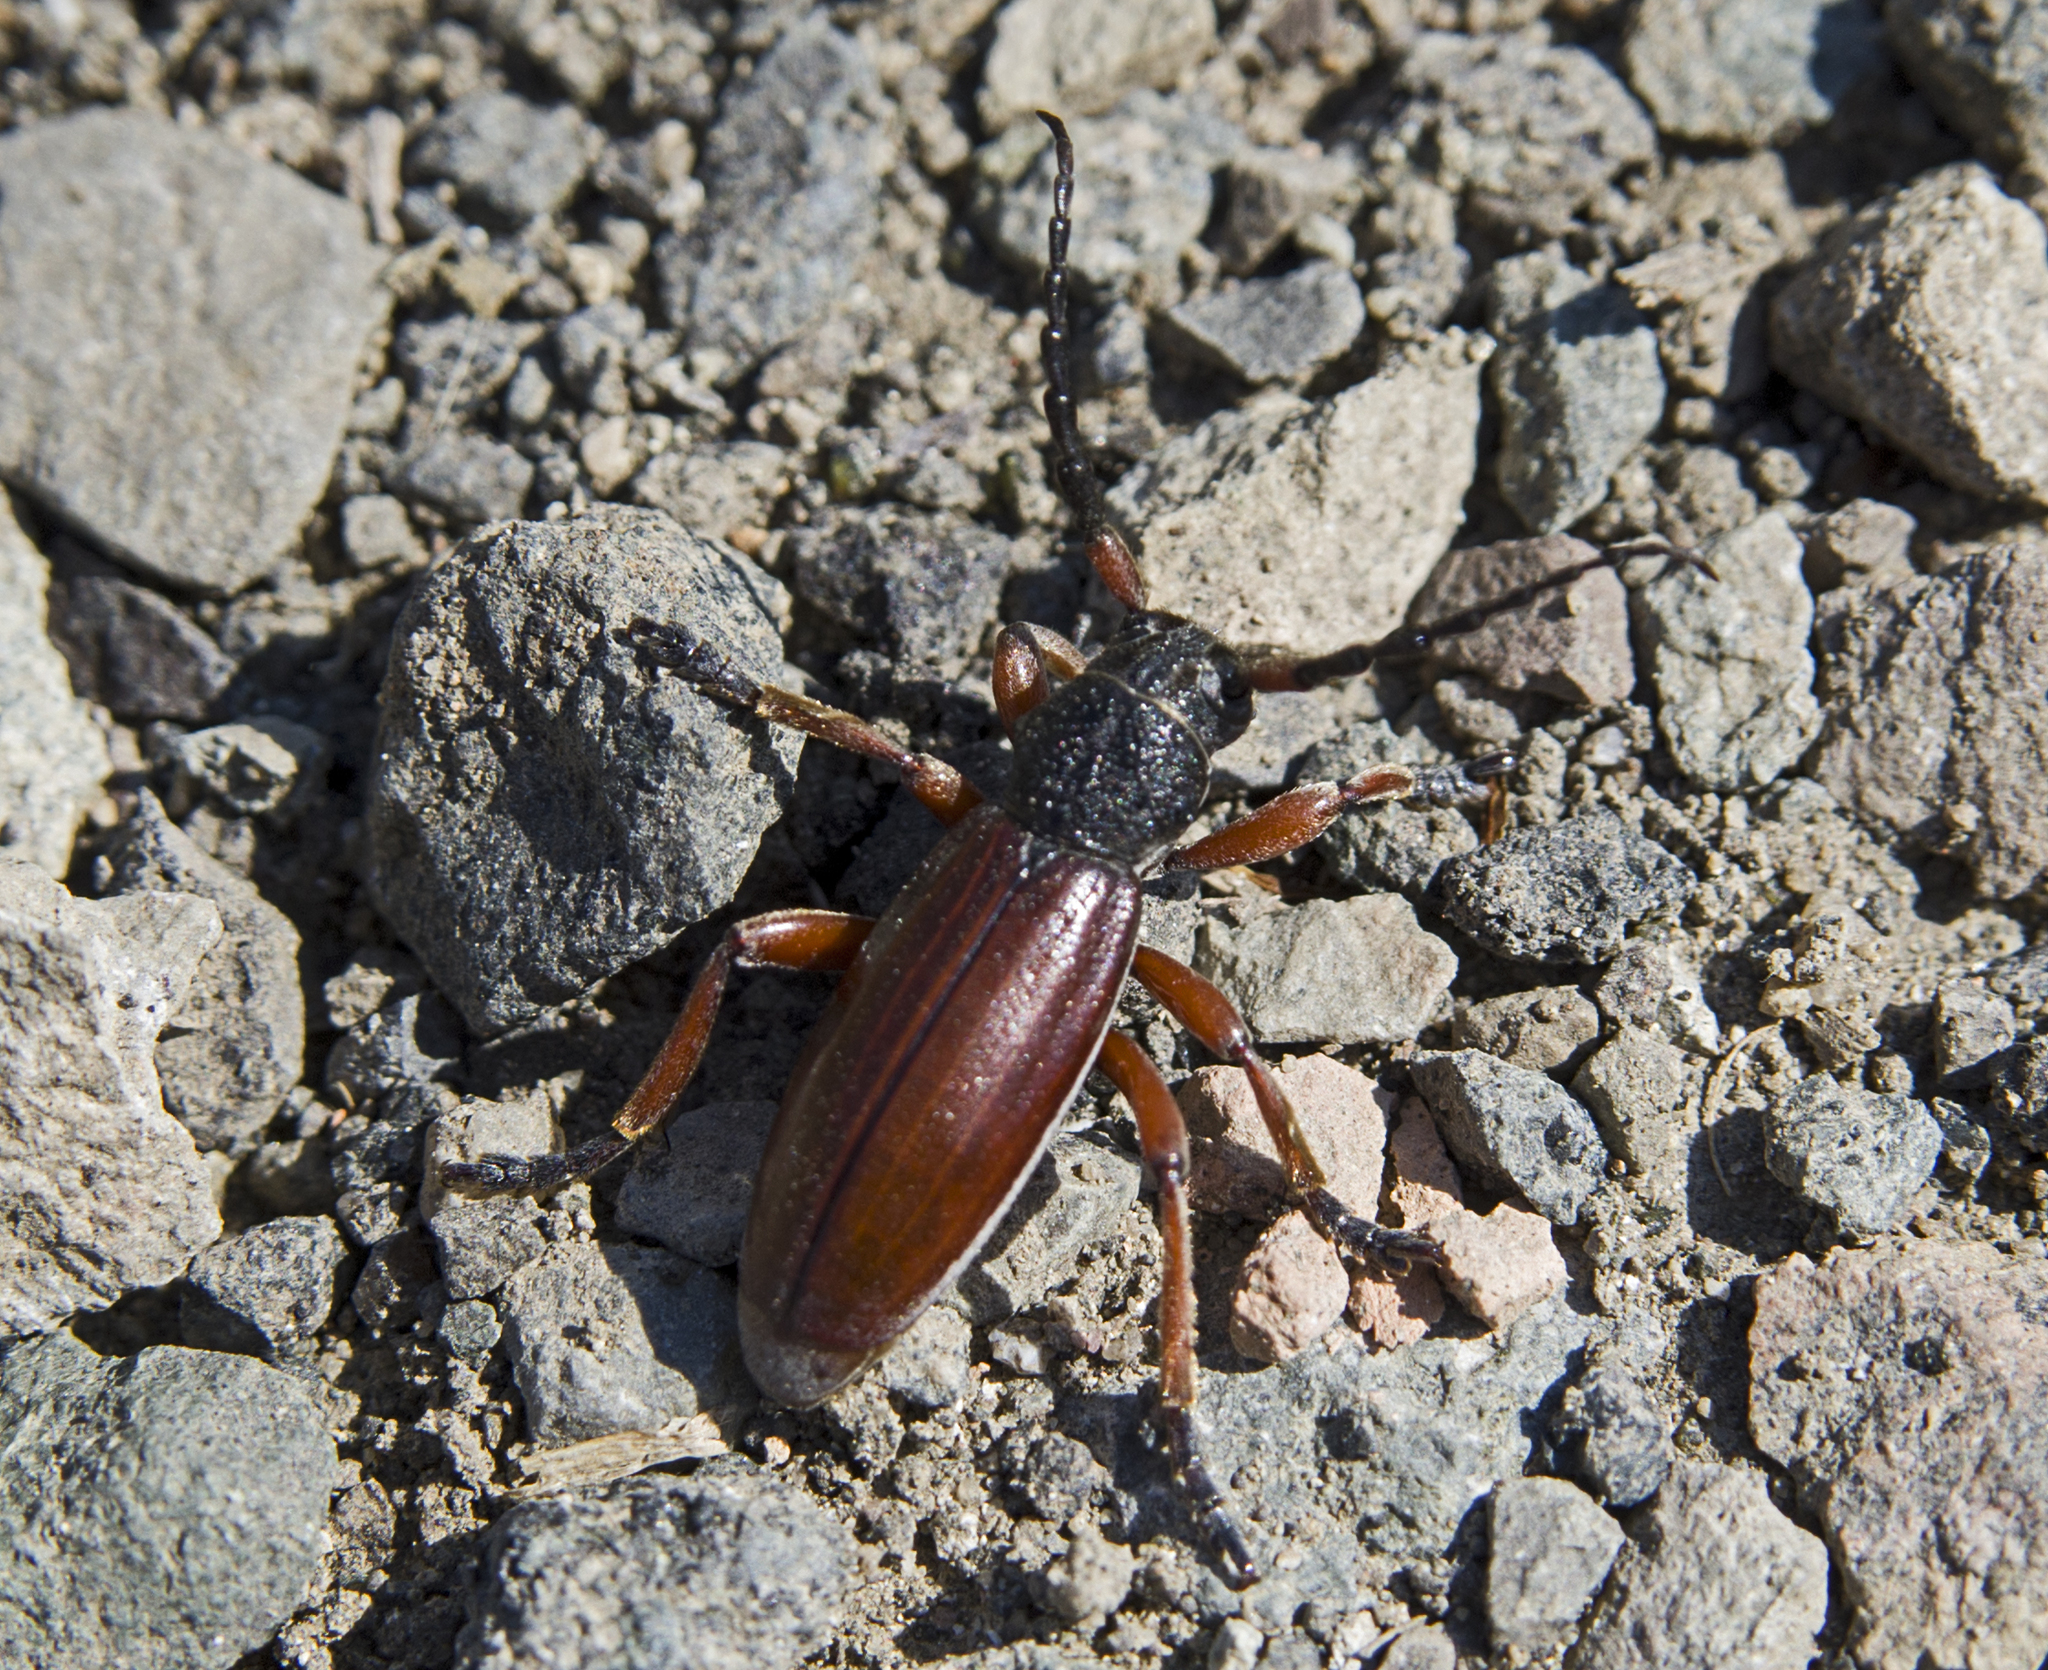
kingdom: Animalia
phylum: Arthropoda
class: Insecta
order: Coleoptera
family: Cerambycidae
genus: Dorcadion
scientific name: Dorcadion fulvum
